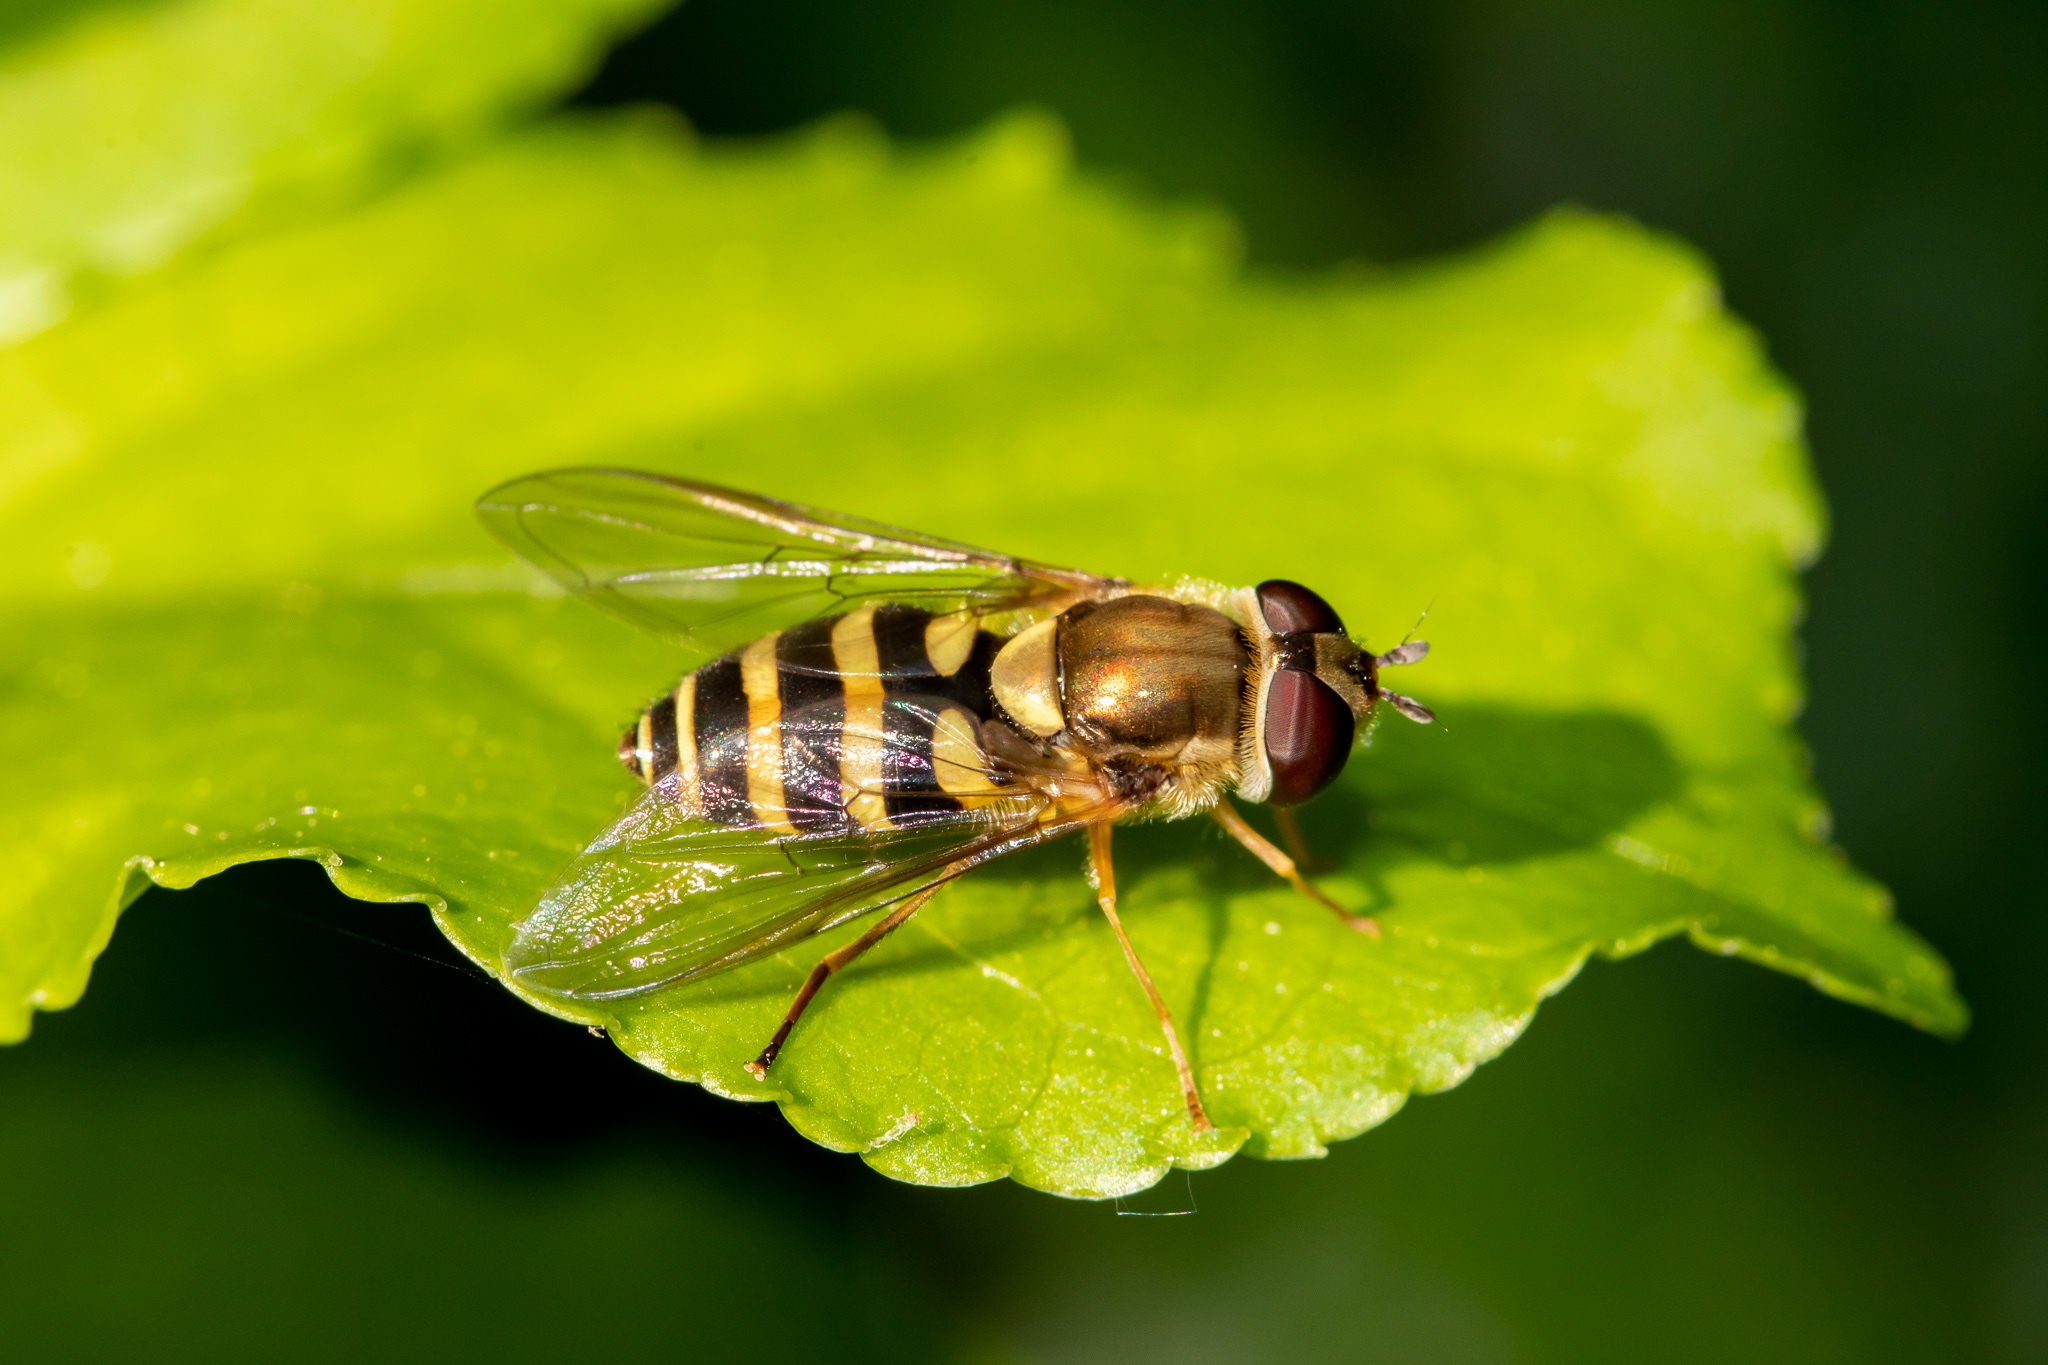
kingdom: Animalia
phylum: Arthropoda
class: Insecta
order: Diptera
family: Syrphidae
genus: Syrphus
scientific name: Syrphus
